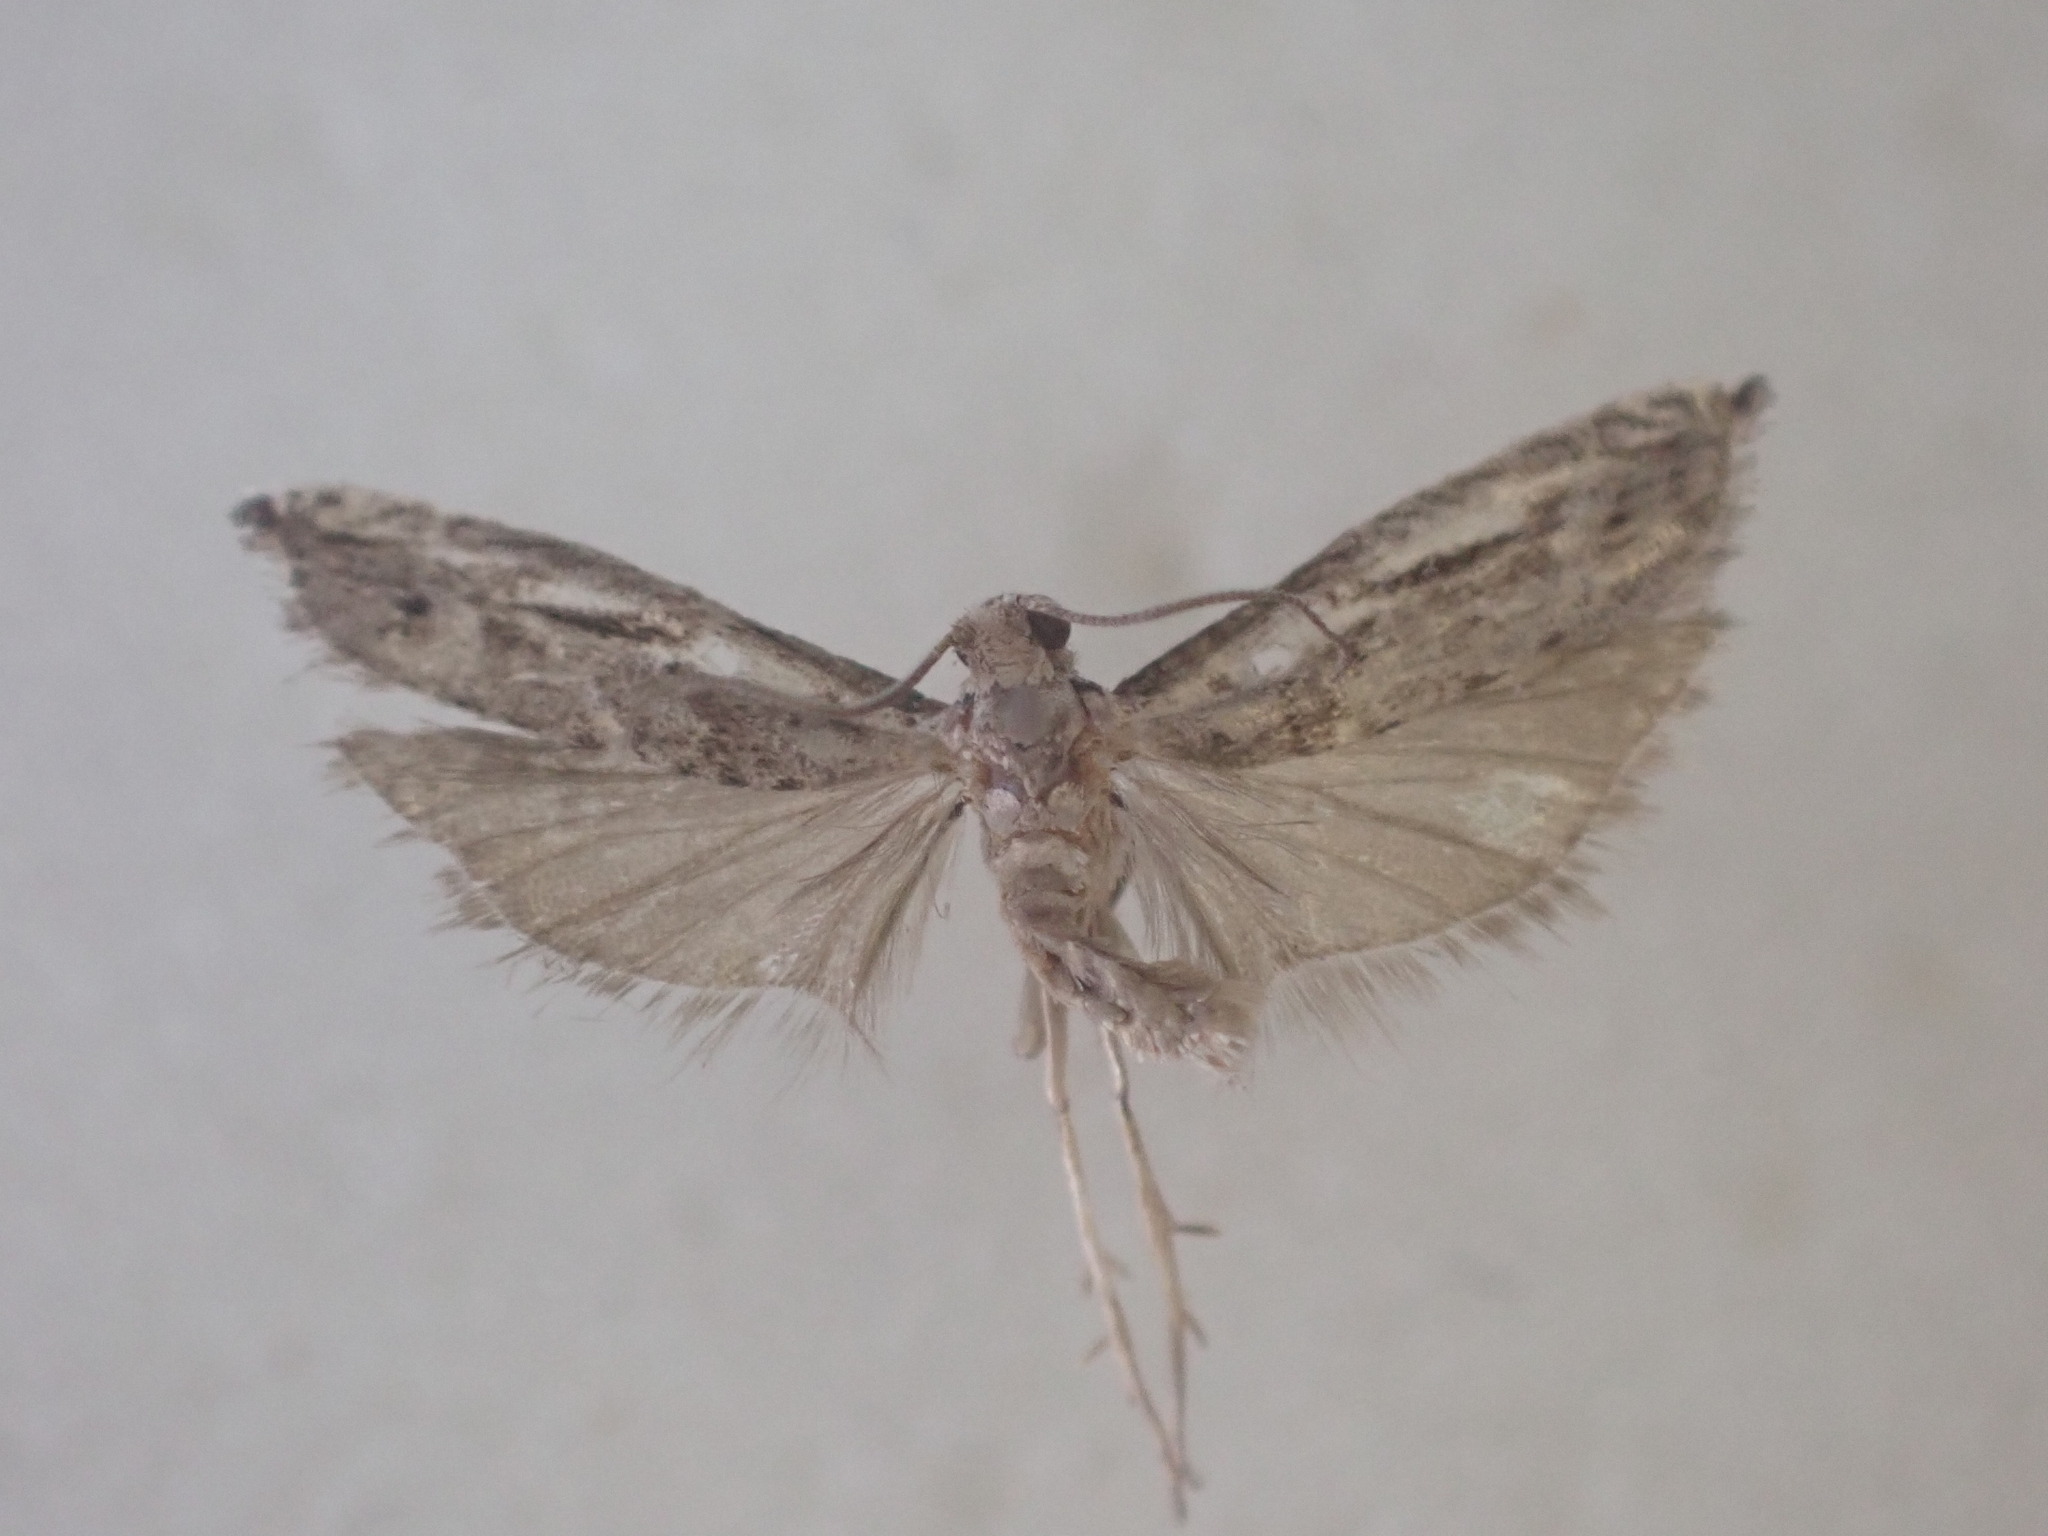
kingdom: Animalia
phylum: Arthropoda
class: Insecta
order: Lepidoptera
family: Tortricidae
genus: Holocola
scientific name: Holocola zopherana
